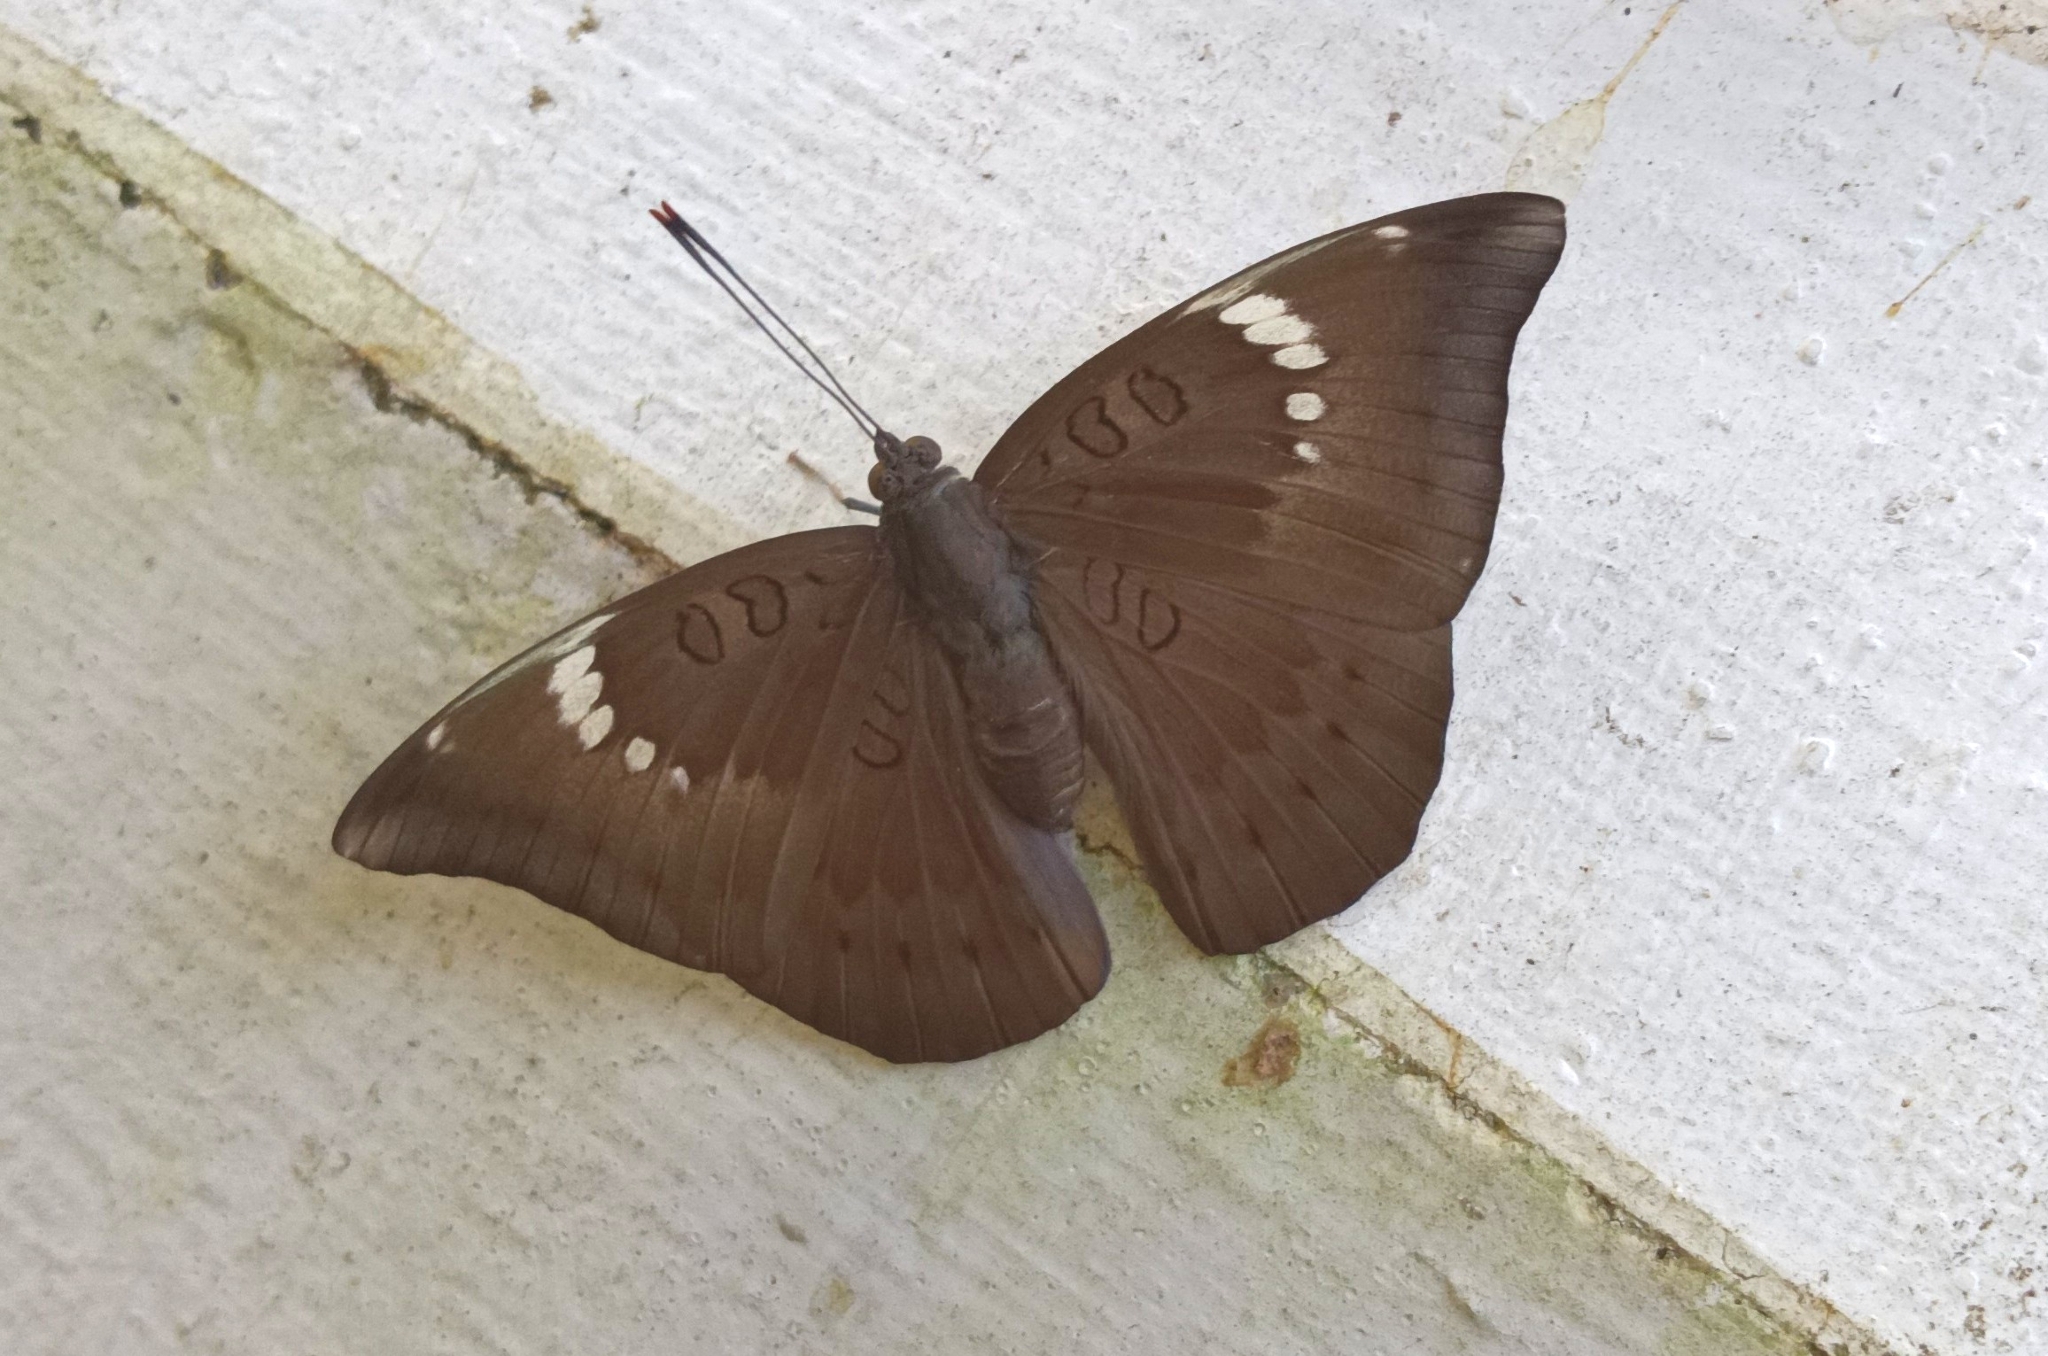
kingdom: Animalia
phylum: Arthropoda
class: Insecta
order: Lepidoptera
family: Nymphalidae
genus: Euthalia
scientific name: Euthalia aconthea
